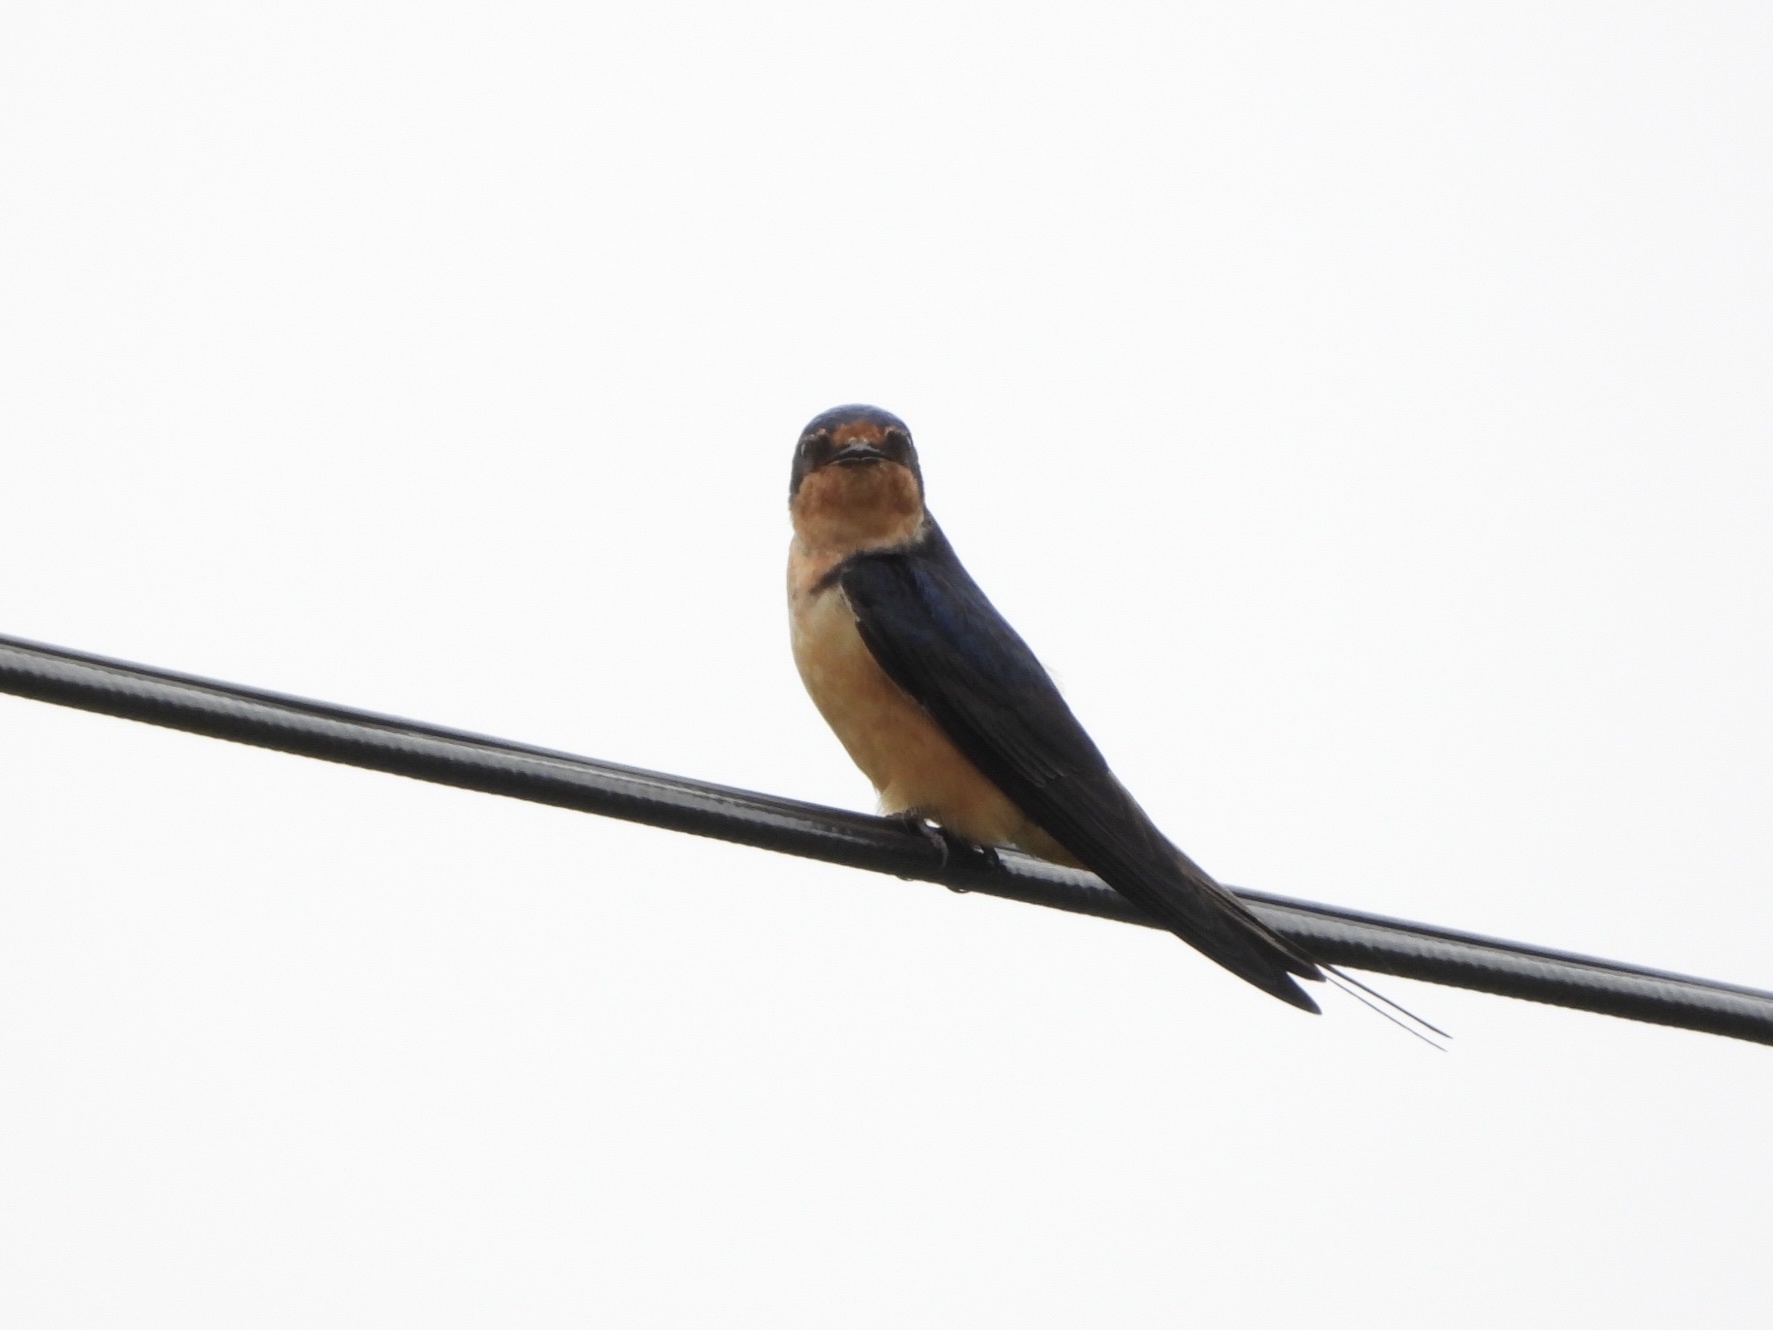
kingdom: Animalia
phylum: Chordata
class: Aves
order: Passeriformes
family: Hirundinidae
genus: Hirundo
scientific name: Hirundo rustica
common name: Barn swallow
